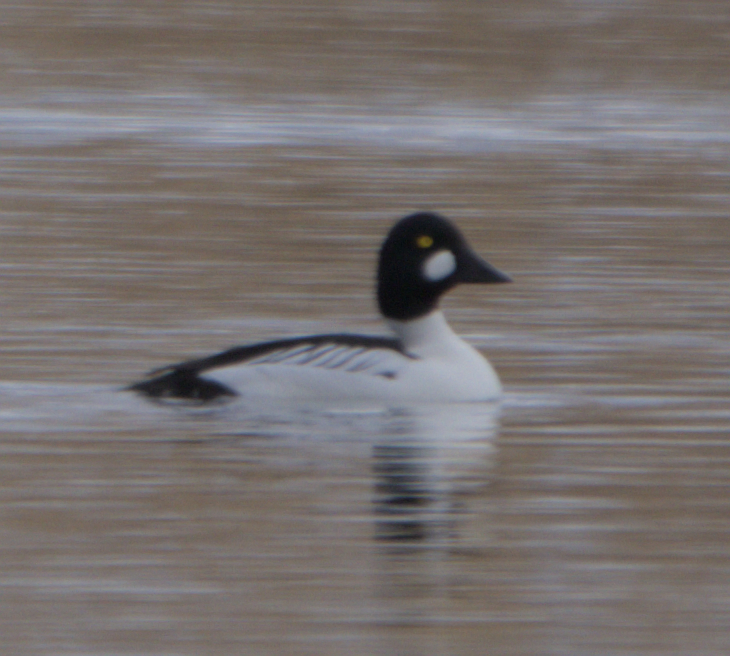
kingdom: Animalia
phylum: Chordata
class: Aves
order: Anseriformes
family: Anatidae
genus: Bucephala
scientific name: Bucephala clangula
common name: Common goldeneye
